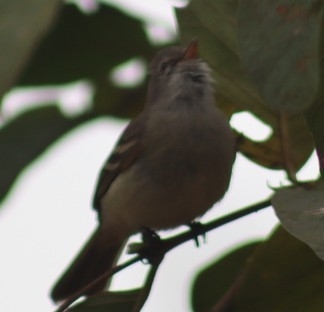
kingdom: Animalia
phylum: Chordata
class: Aves
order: Passeriformes
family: Tyrannidae
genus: Camptostoma
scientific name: Camptostoma obsoletum
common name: Southern beardless-tyrannulet
